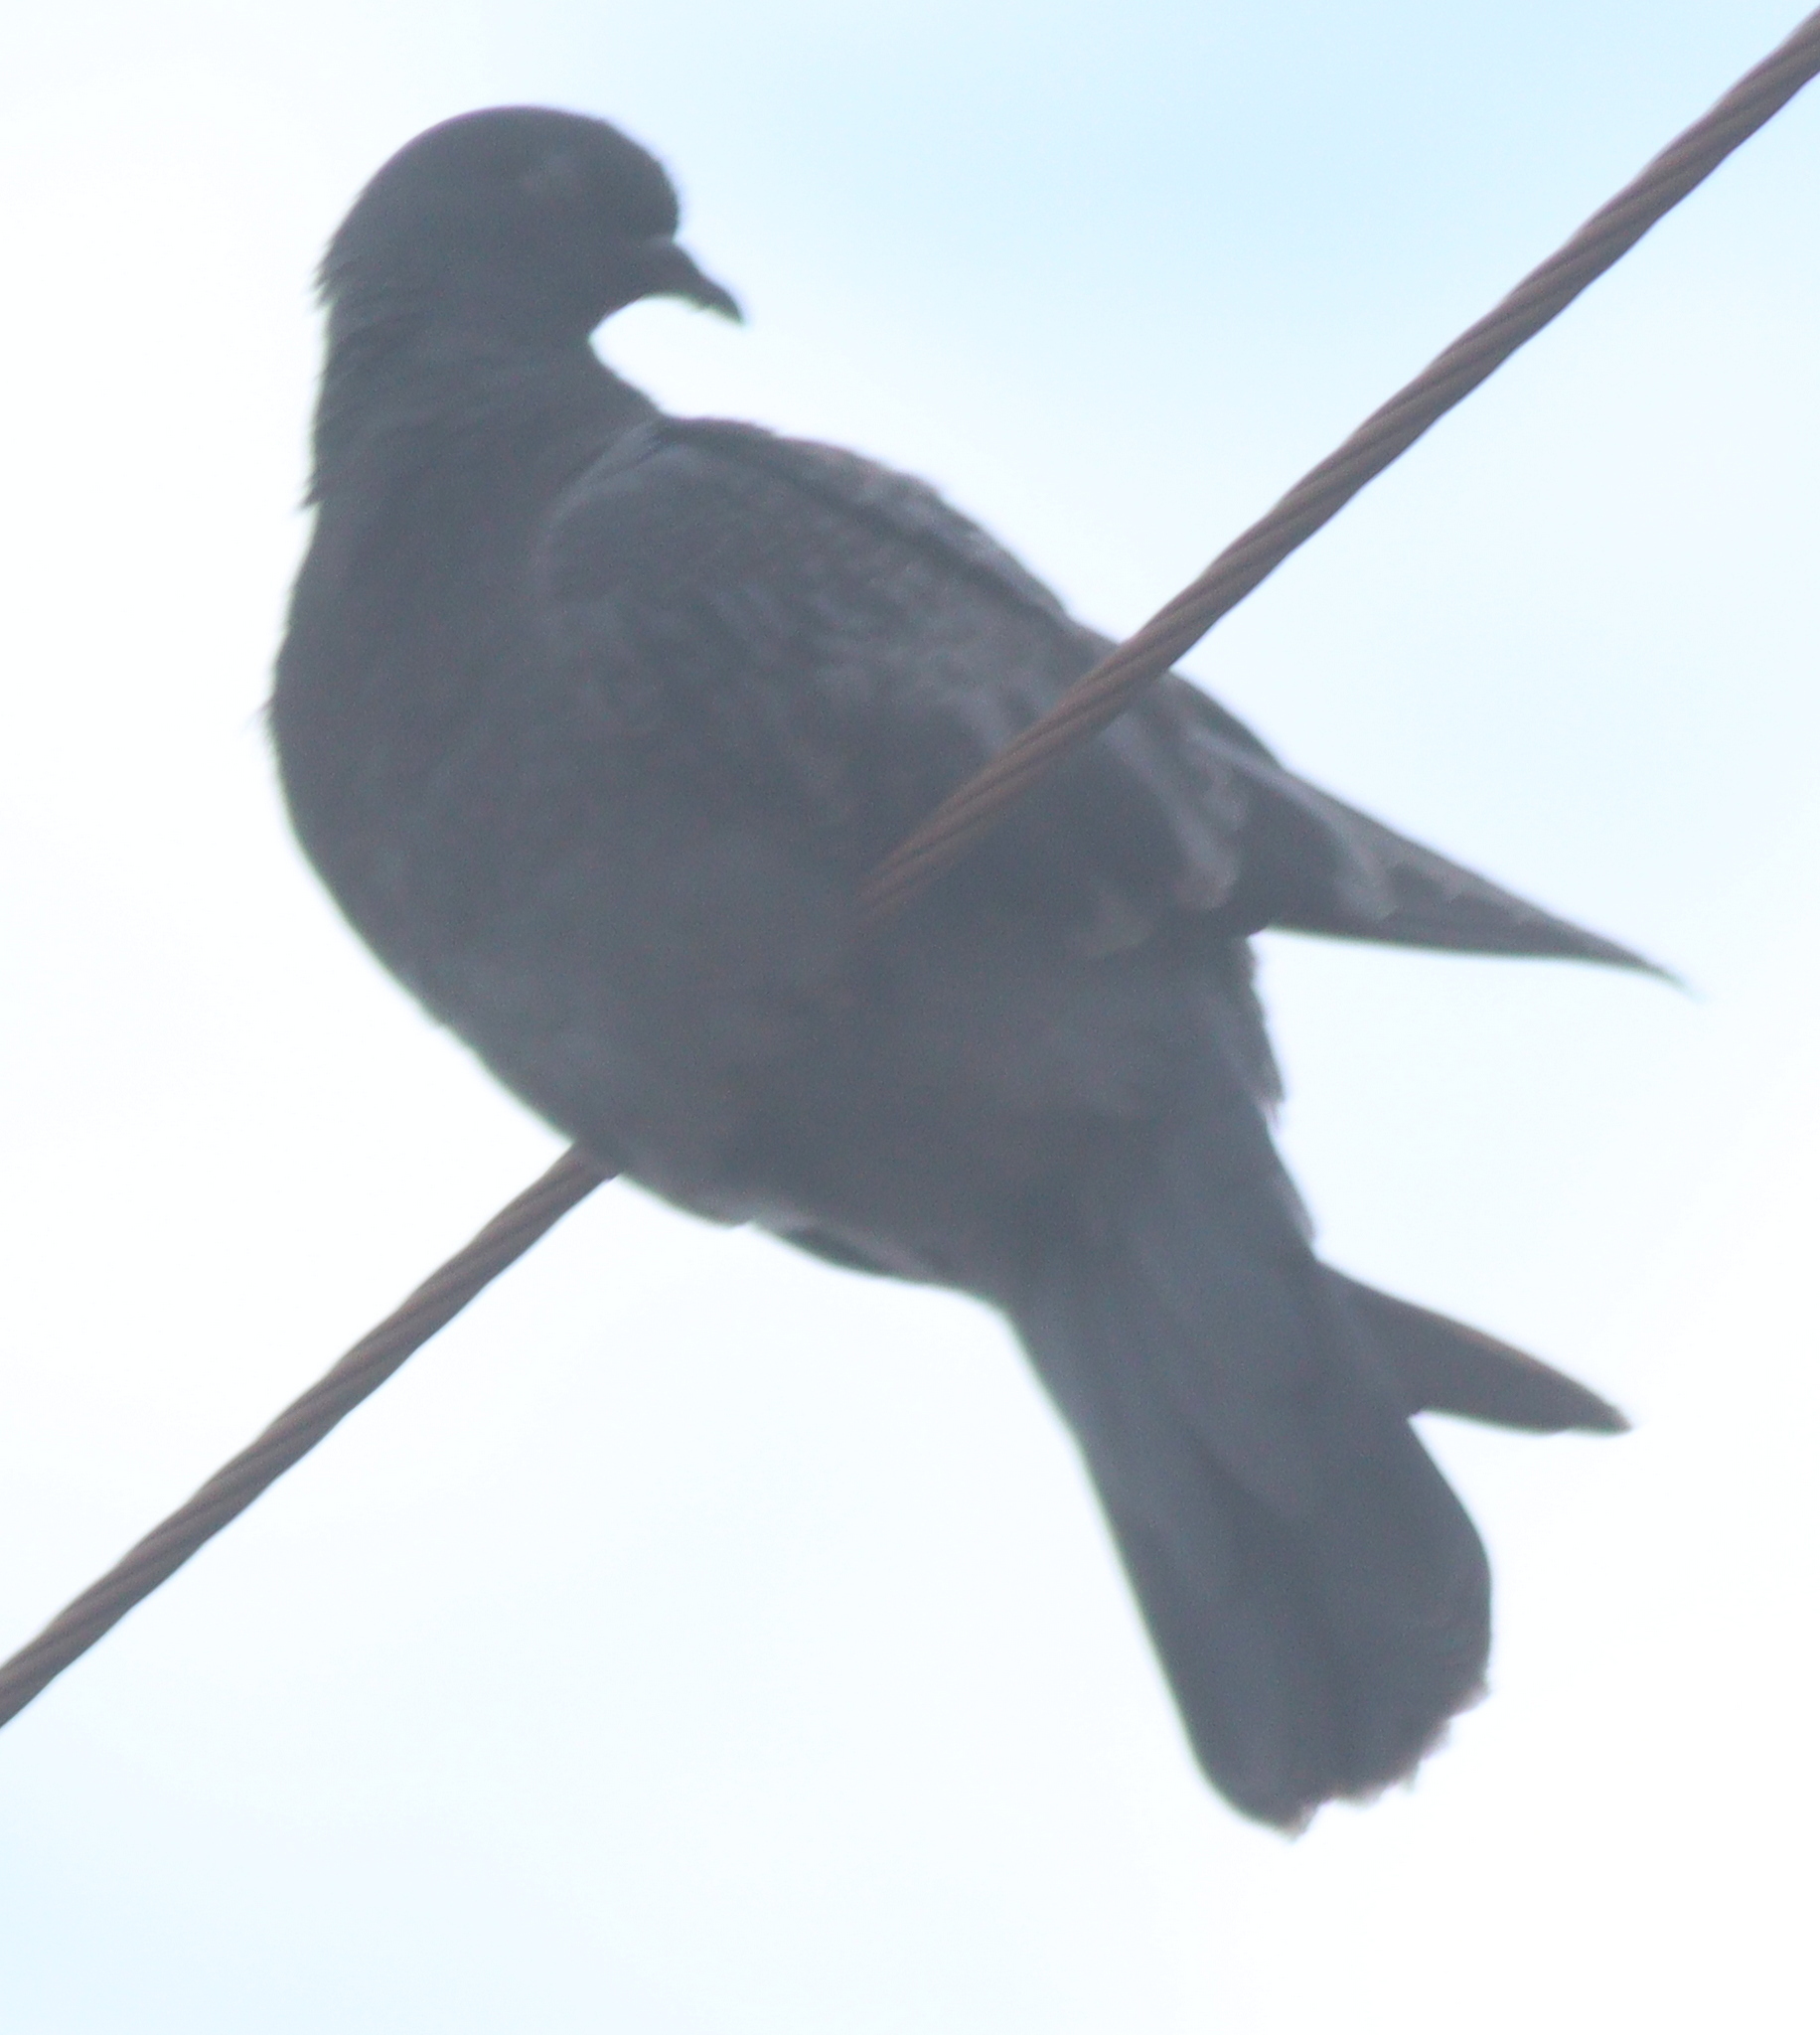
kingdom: Animalia
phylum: Chordata
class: Aves
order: Columbiformes
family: Columbidae
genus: Columba
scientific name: Columba livia
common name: Rock pigeon
